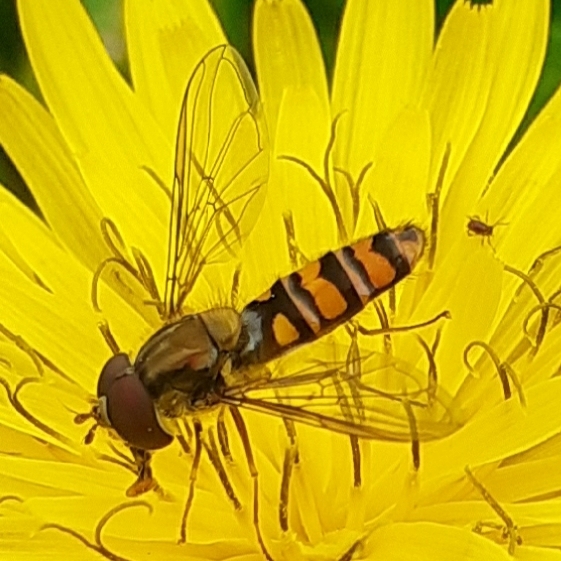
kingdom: Animalia
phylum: Arthropoda
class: Insecta
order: Diptera
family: Syrphidae
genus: Episyrphus
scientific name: Episyrphus balteatus
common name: Marmalade hoverfly
